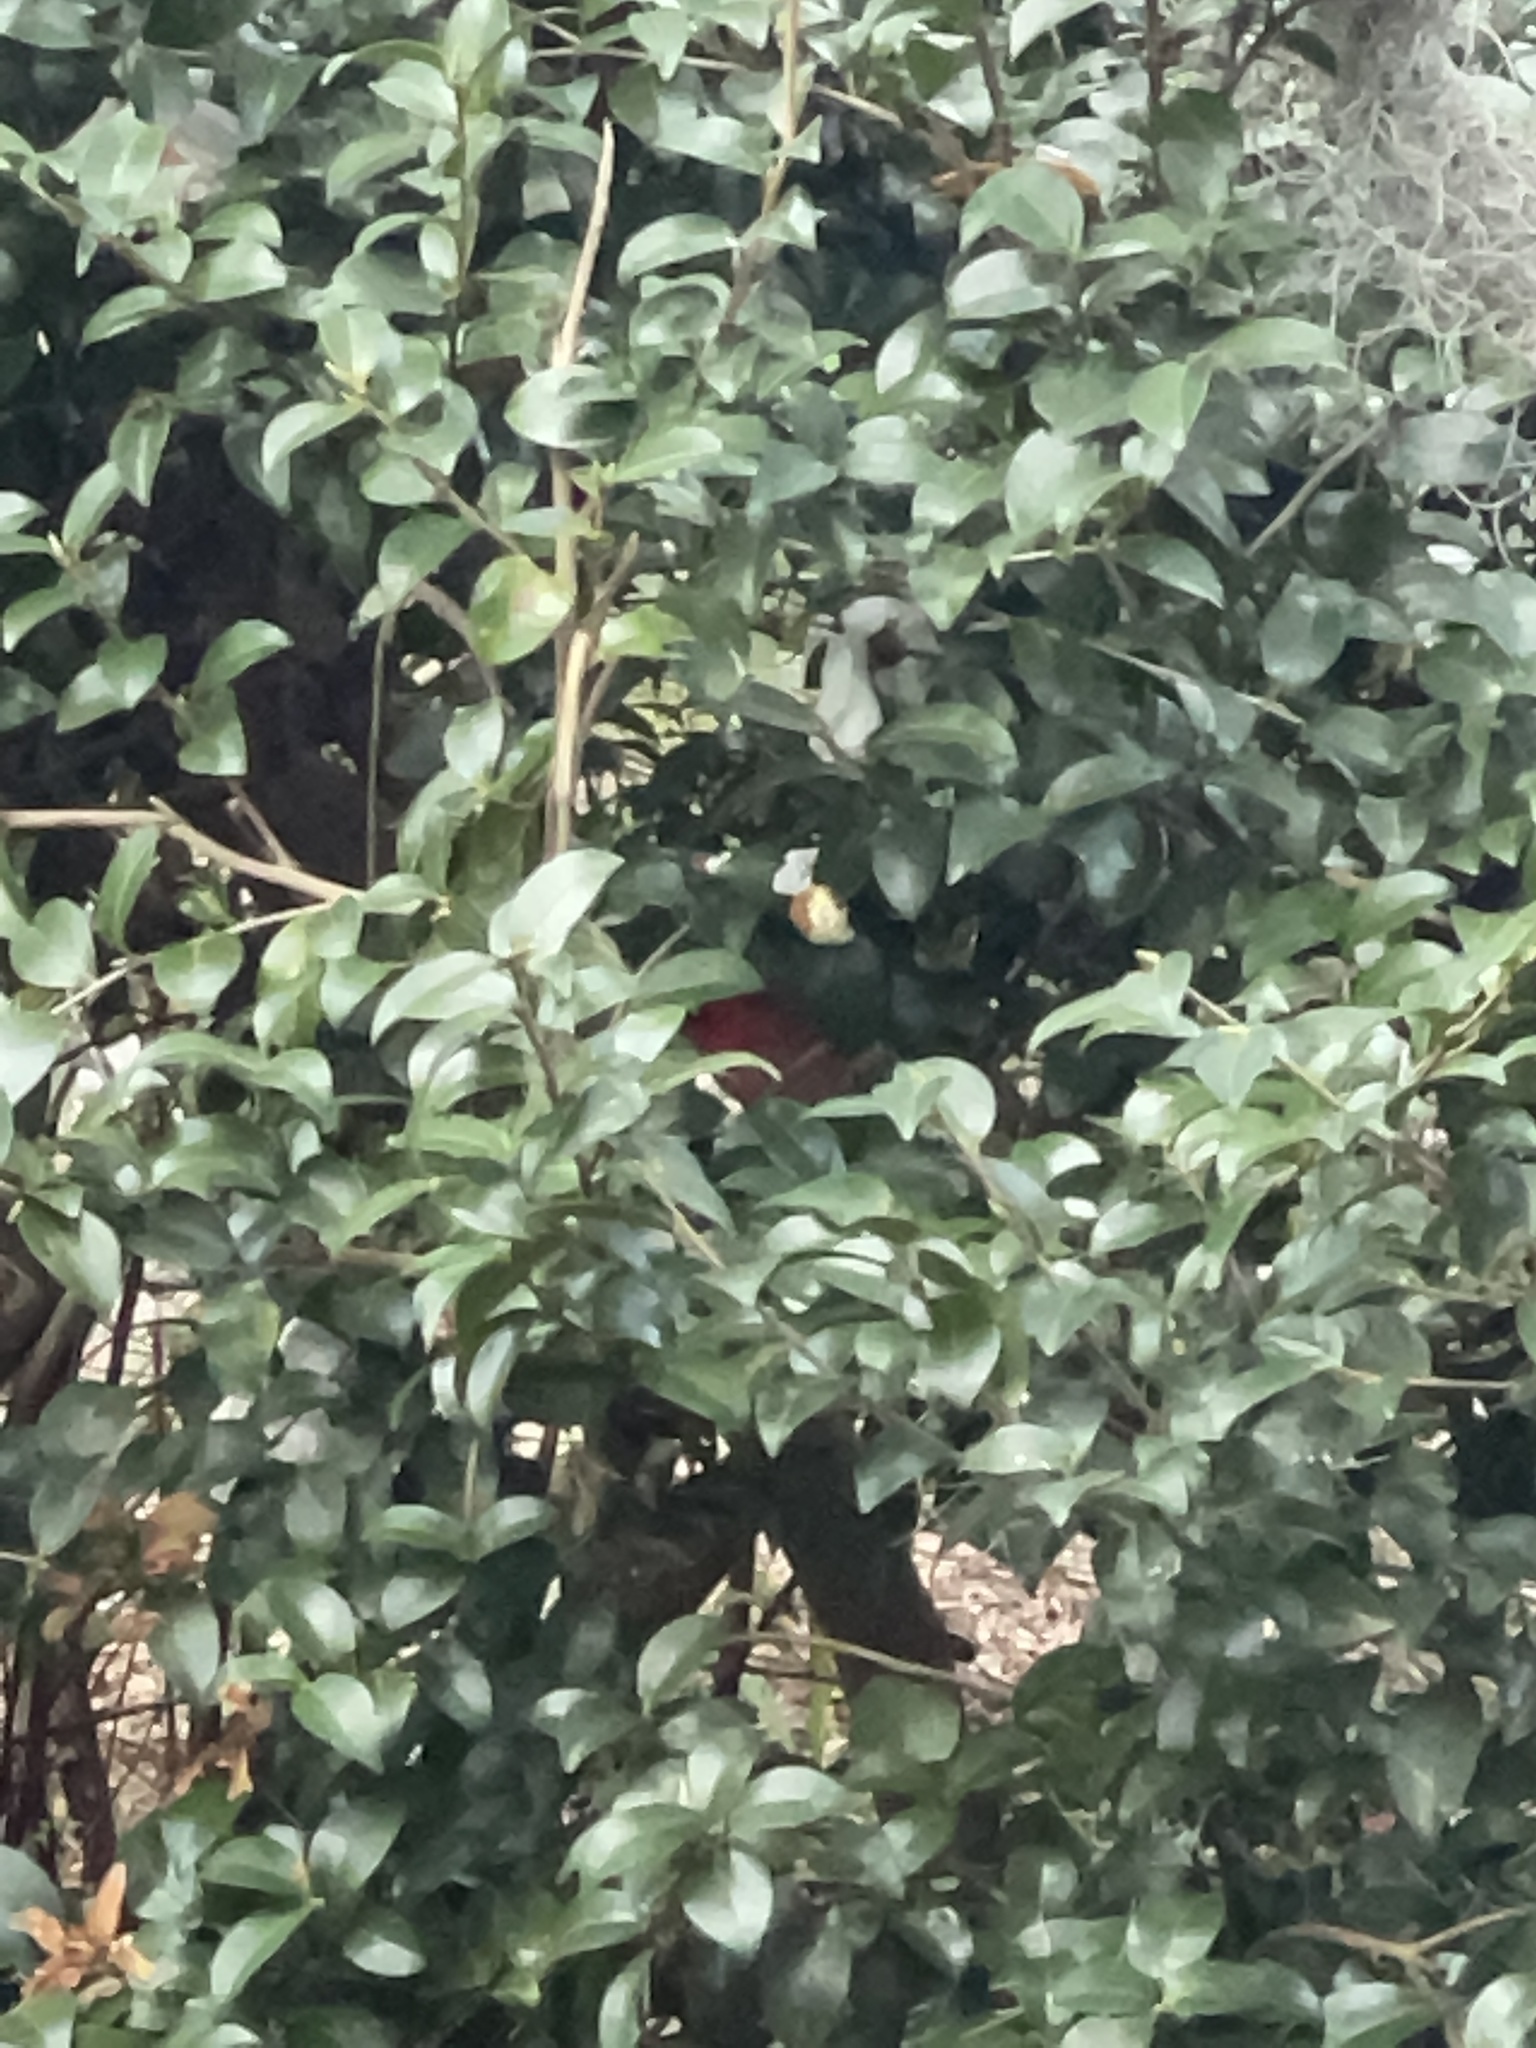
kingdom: Animalia
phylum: Chordata
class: Aves
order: Passeriformes
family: Cardinalidae
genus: Cardinalis
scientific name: Cardinalis cardinalis
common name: Northern cardinal
